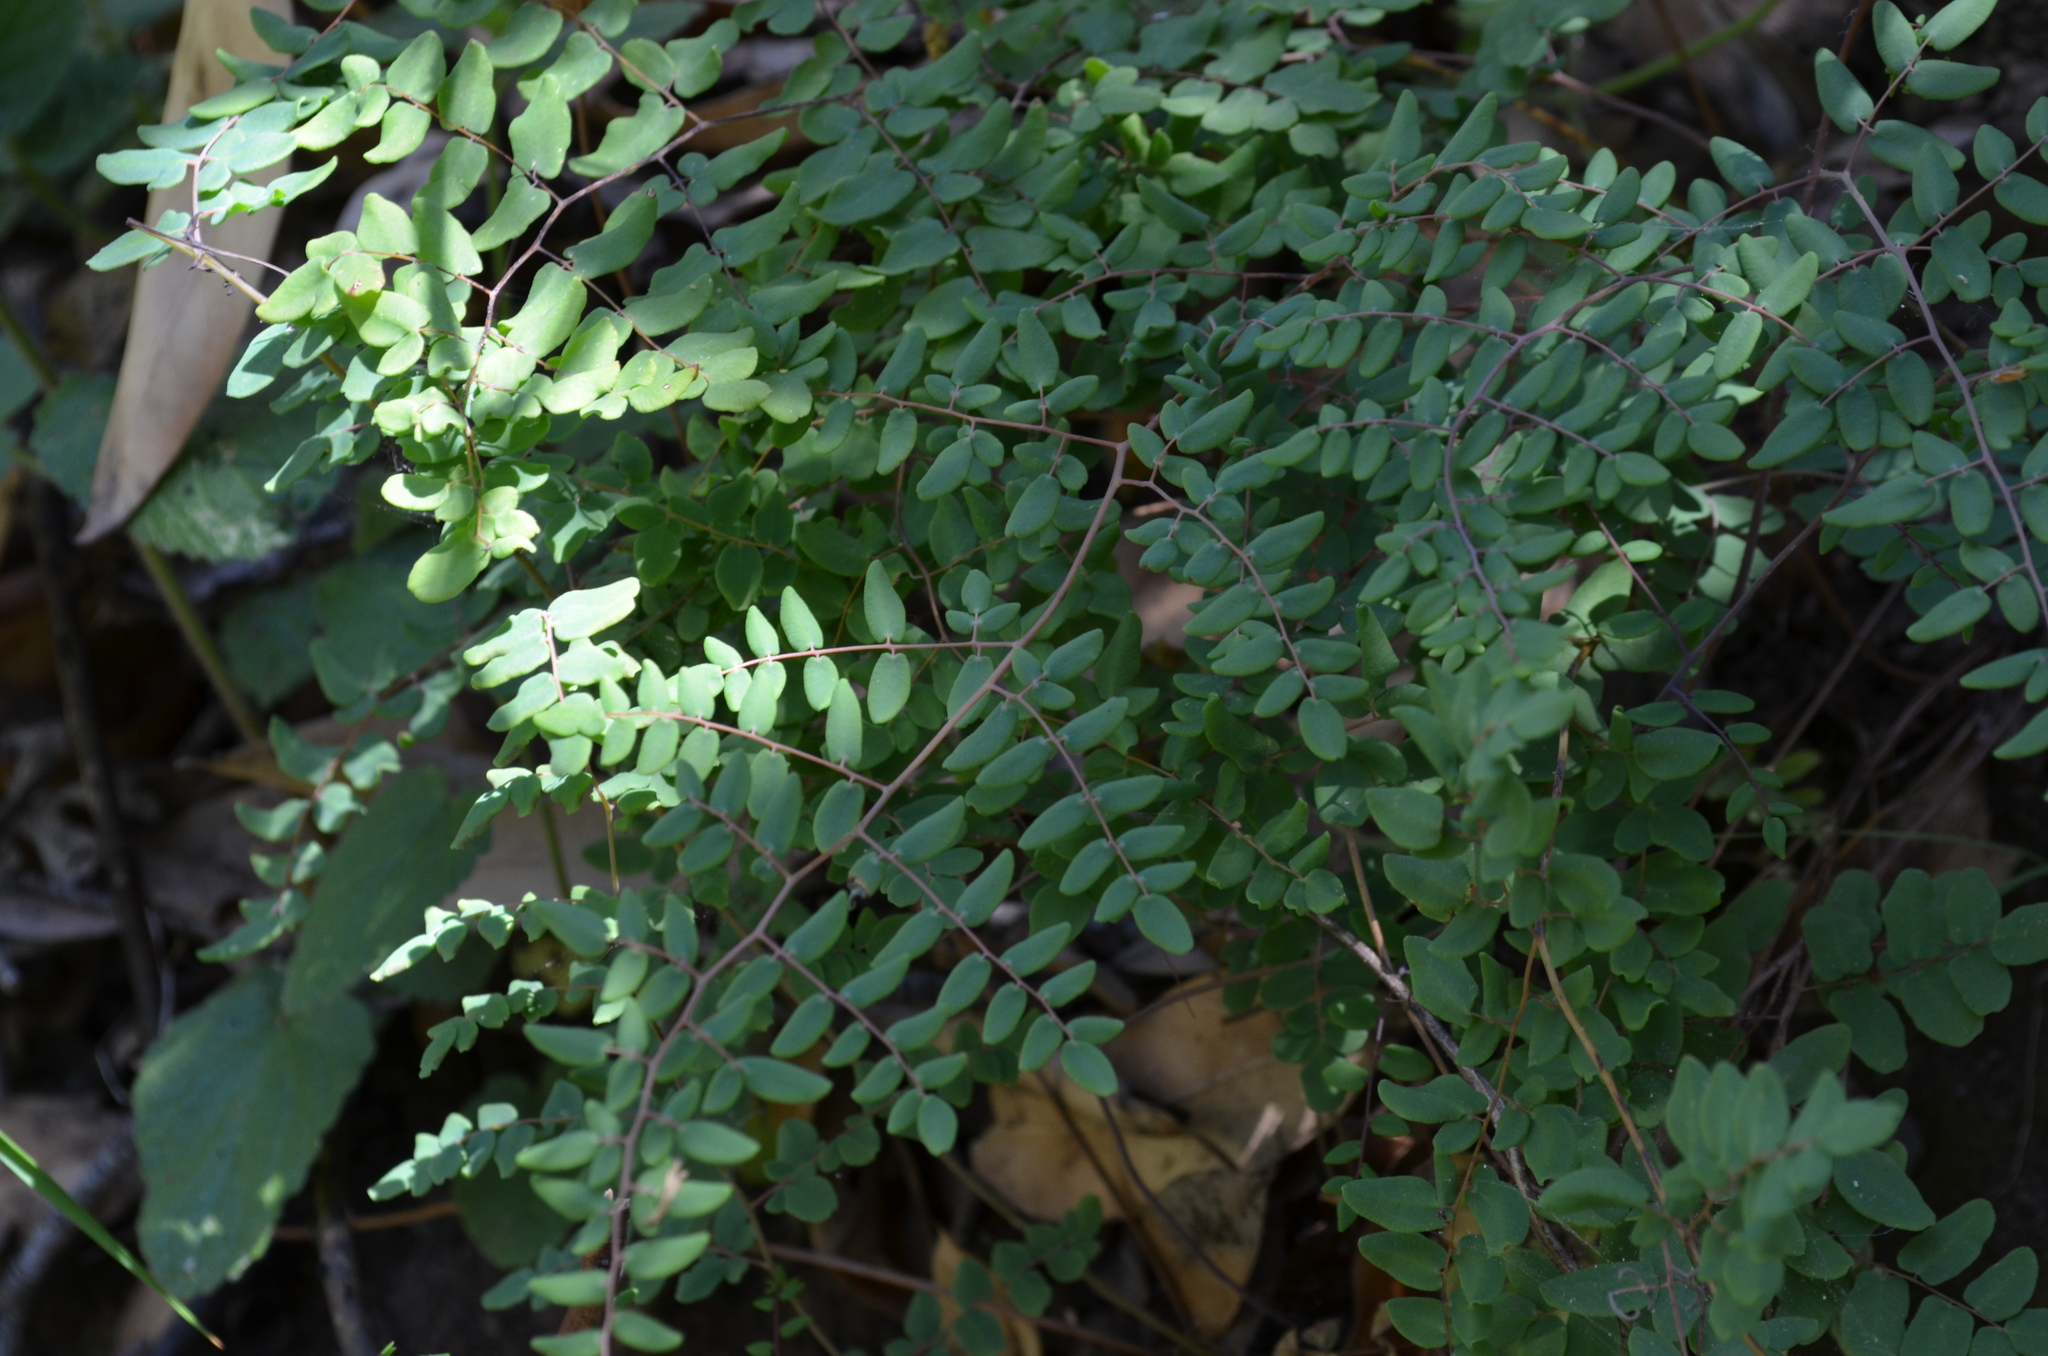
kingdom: Plantae
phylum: Tracheophyta
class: Polypodiopsida
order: Polypodiales
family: Pteridaceae
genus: Pellaea
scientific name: Pellaea andromedifolia
